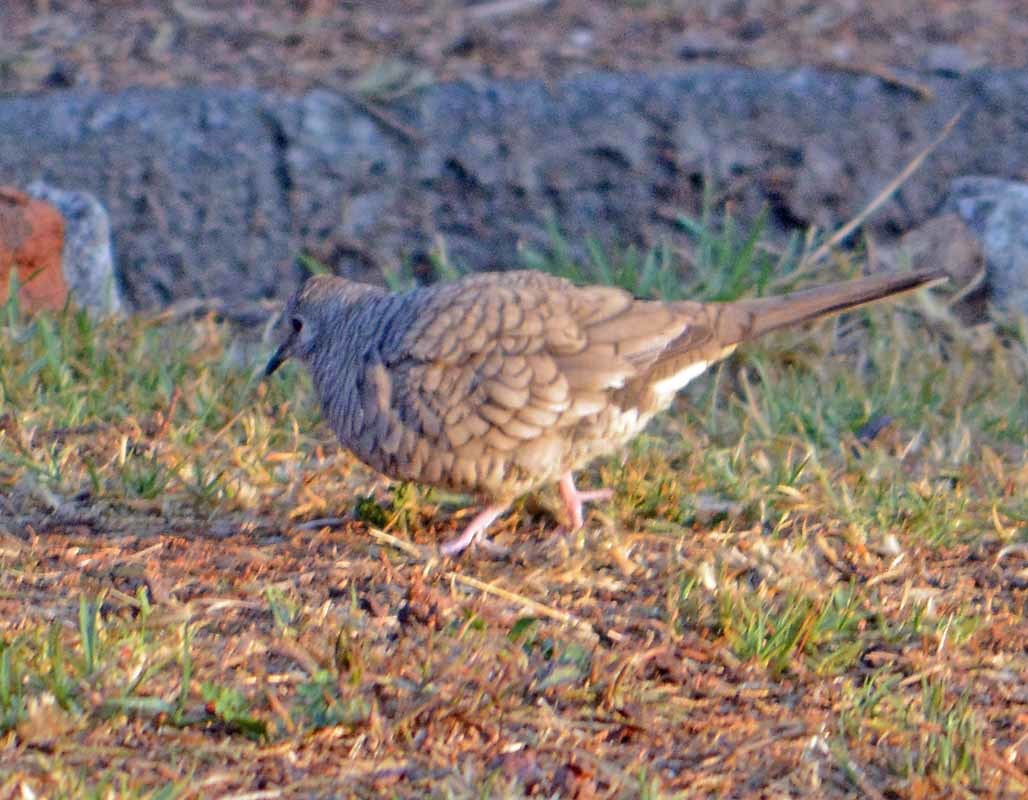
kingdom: Animalia
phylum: Chordata
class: Aves
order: Columbiformes
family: Columbidae
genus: Columbina
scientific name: Columbina inca
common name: Inca dove
